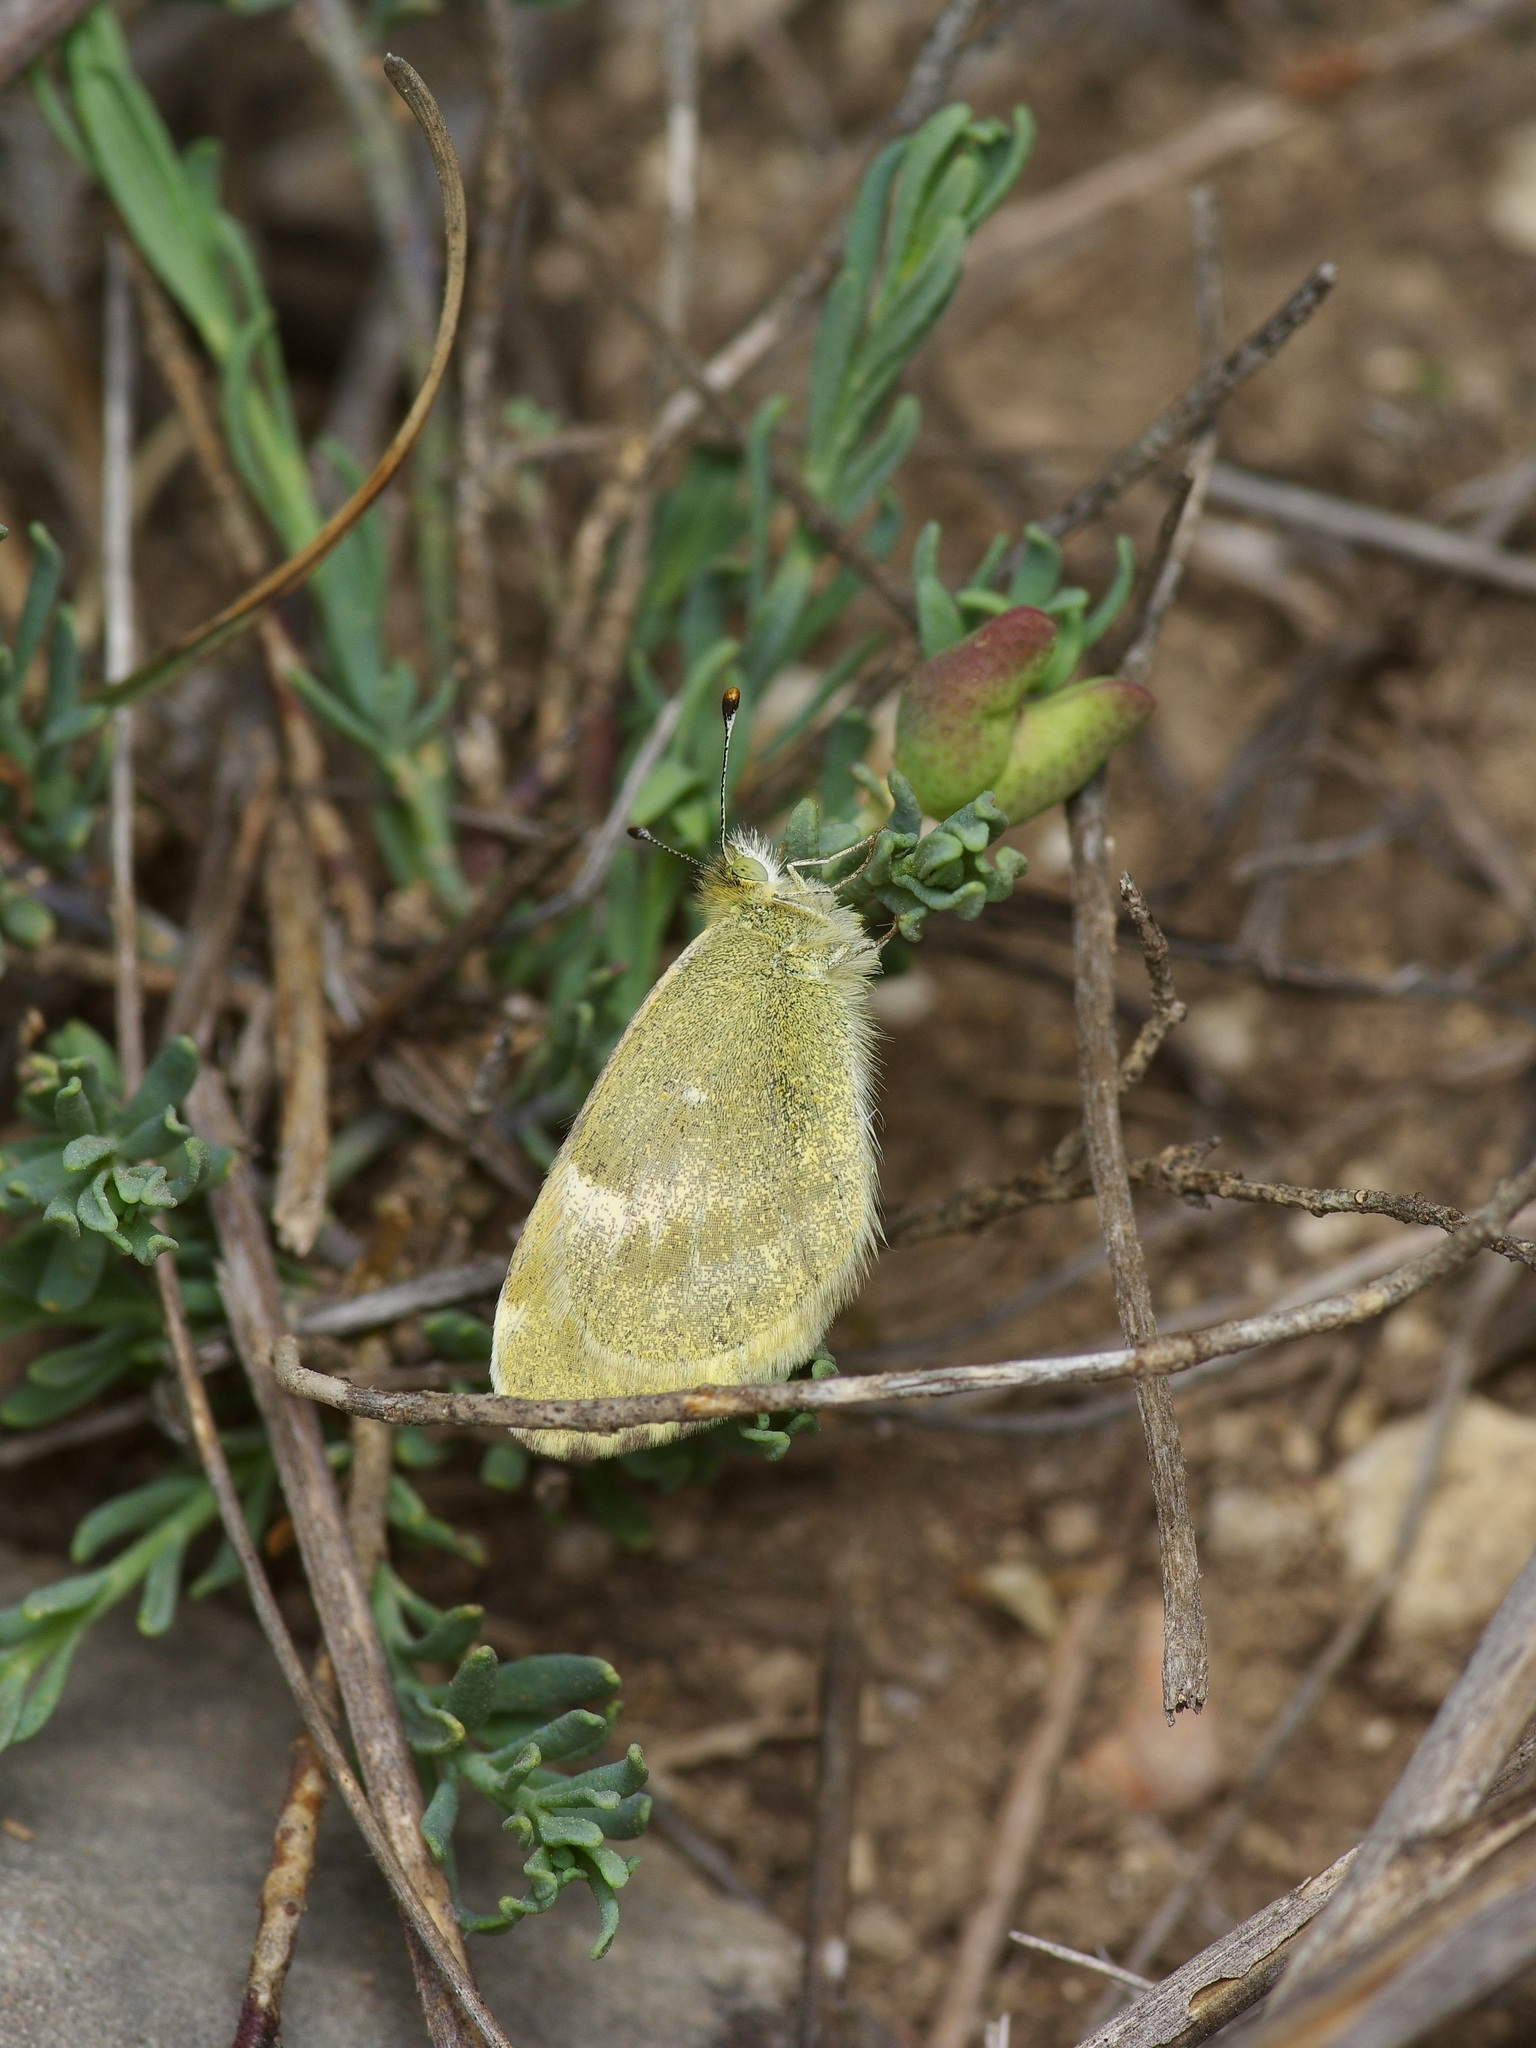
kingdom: Animalia
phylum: Arthropoda
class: Insecta
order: Lepidoptera
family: Pieridae
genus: Nathalis
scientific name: Nathalis iole
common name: Dainty sulphur
